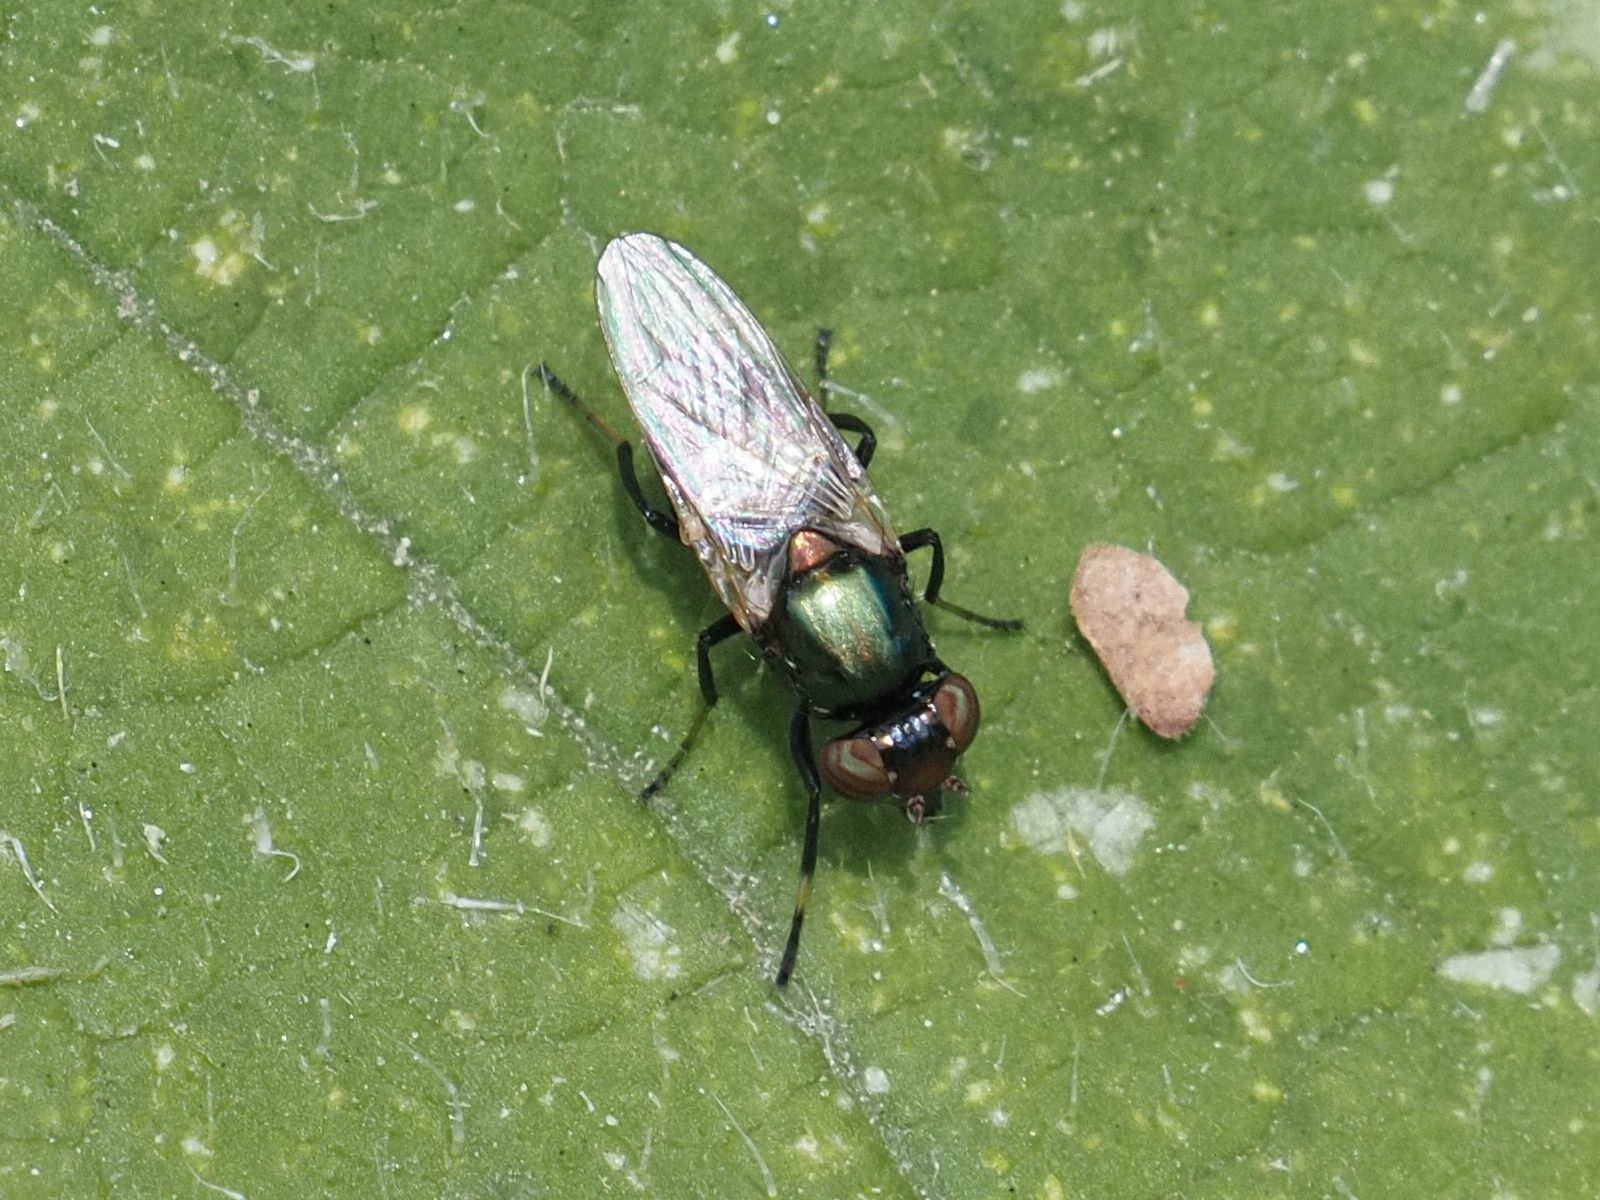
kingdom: Animalia
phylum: Arthropoda
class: Insecta
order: Diptera
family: Ulidiidae
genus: Physiphora
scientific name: Physiphora alceae
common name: Picture-winged fly
